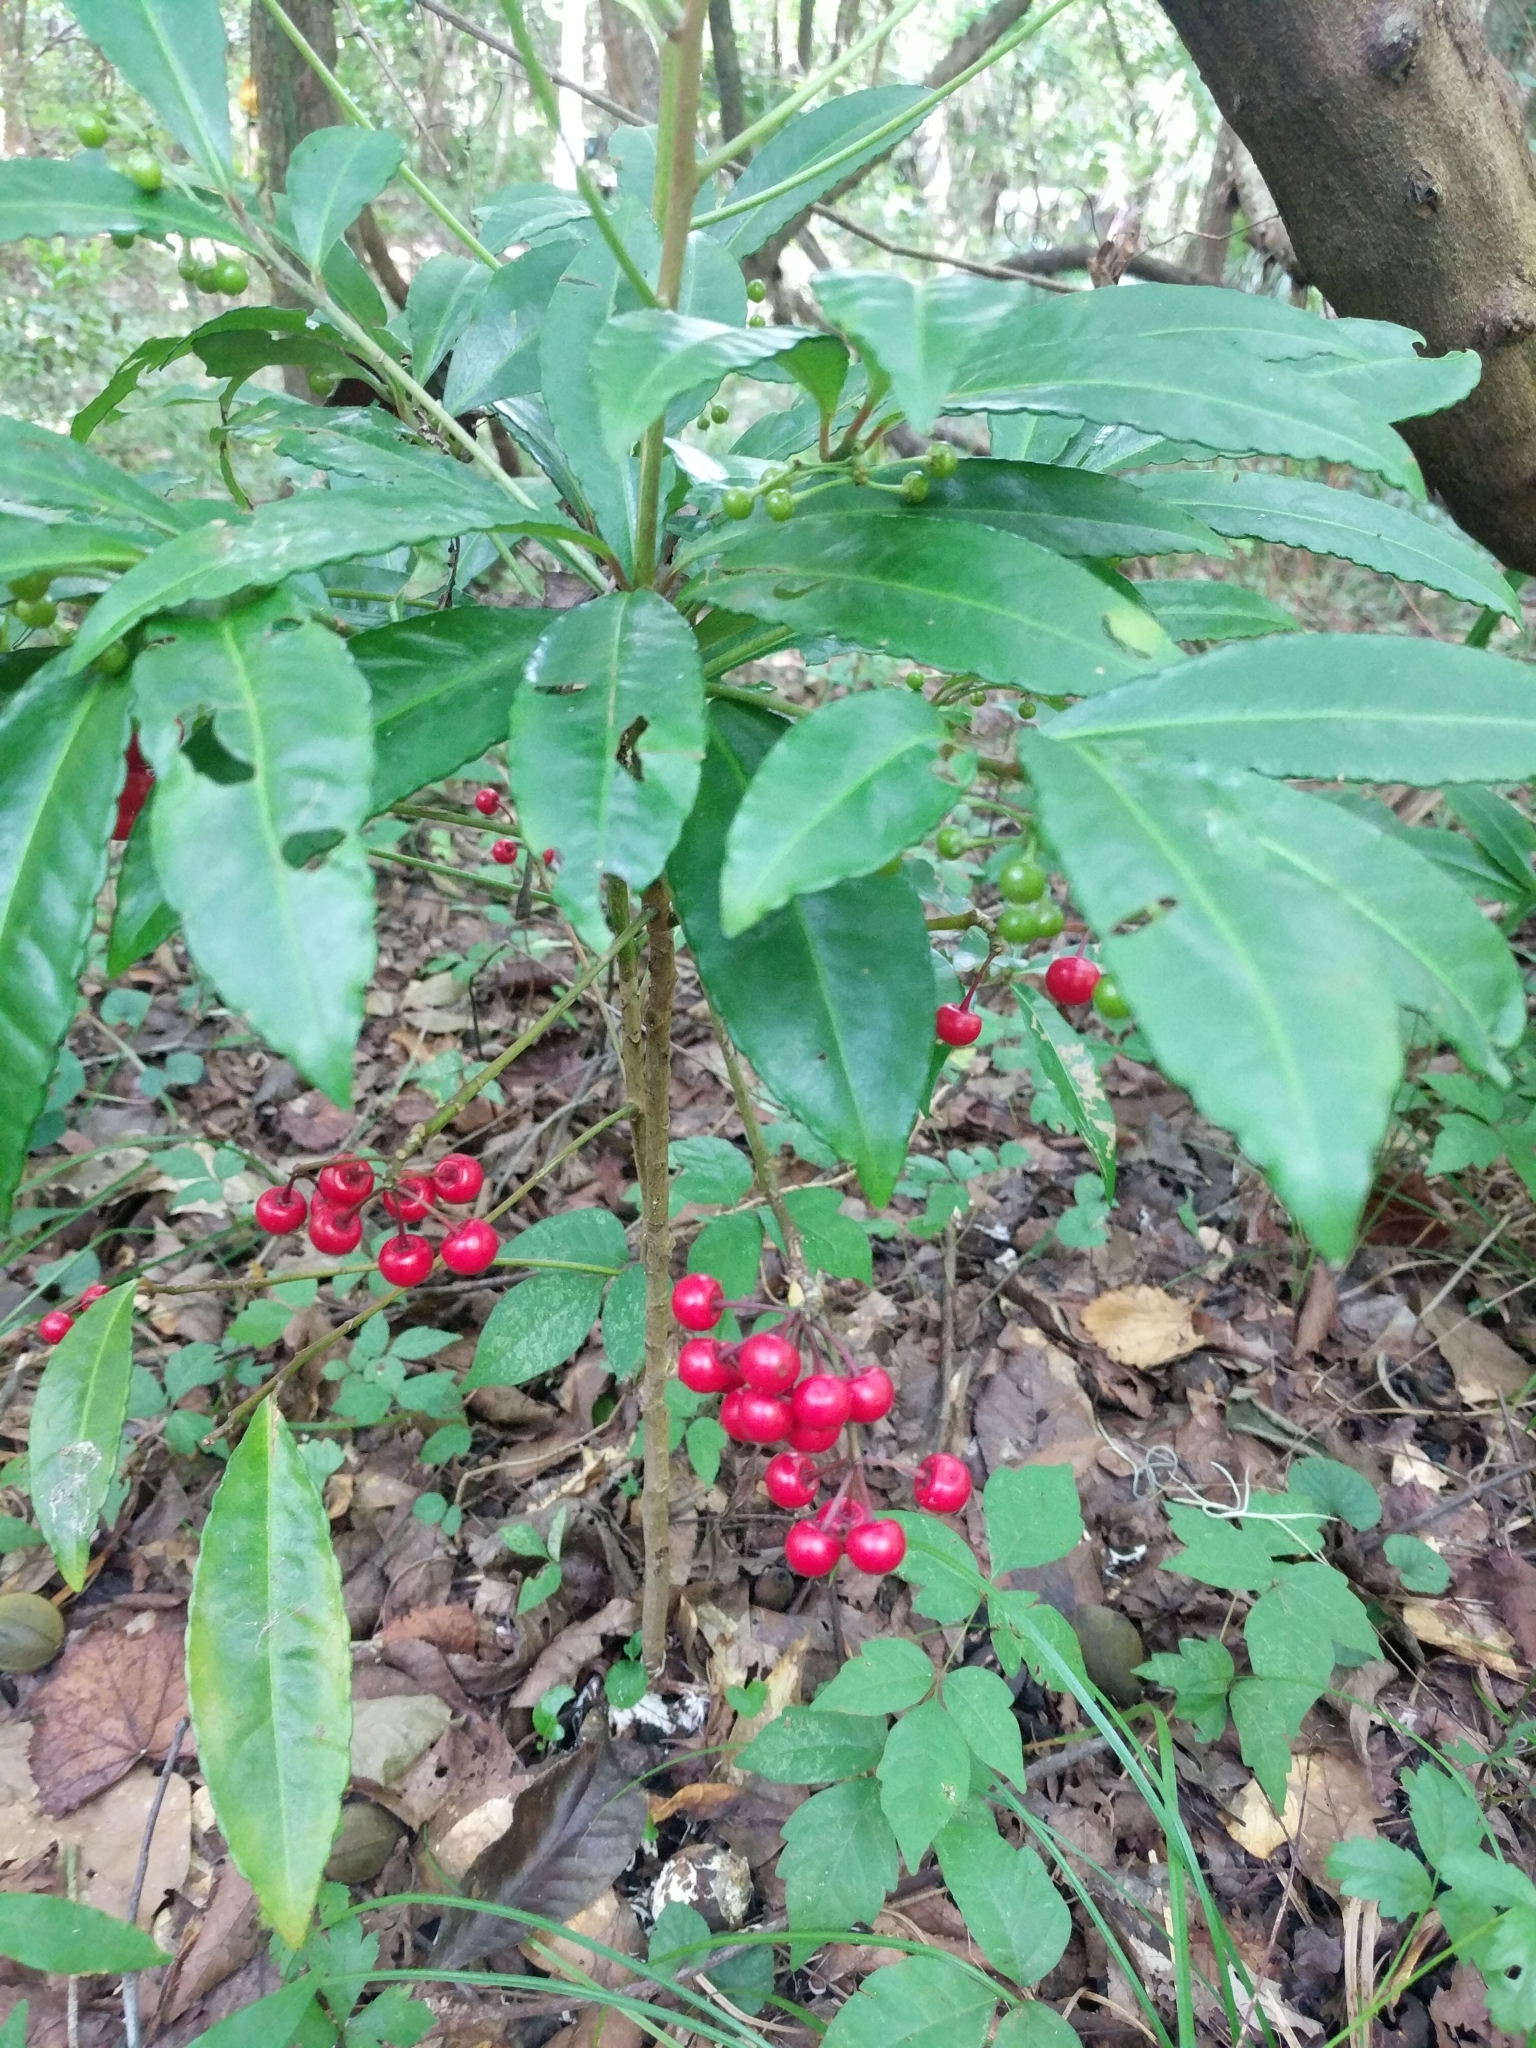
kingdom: Plantae
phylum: Tracheophyta
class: Magnoliopsida
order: Ericales
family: Primulaceae
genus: Ardisia
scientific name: Ardisia crenata
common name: Hen's eyes
